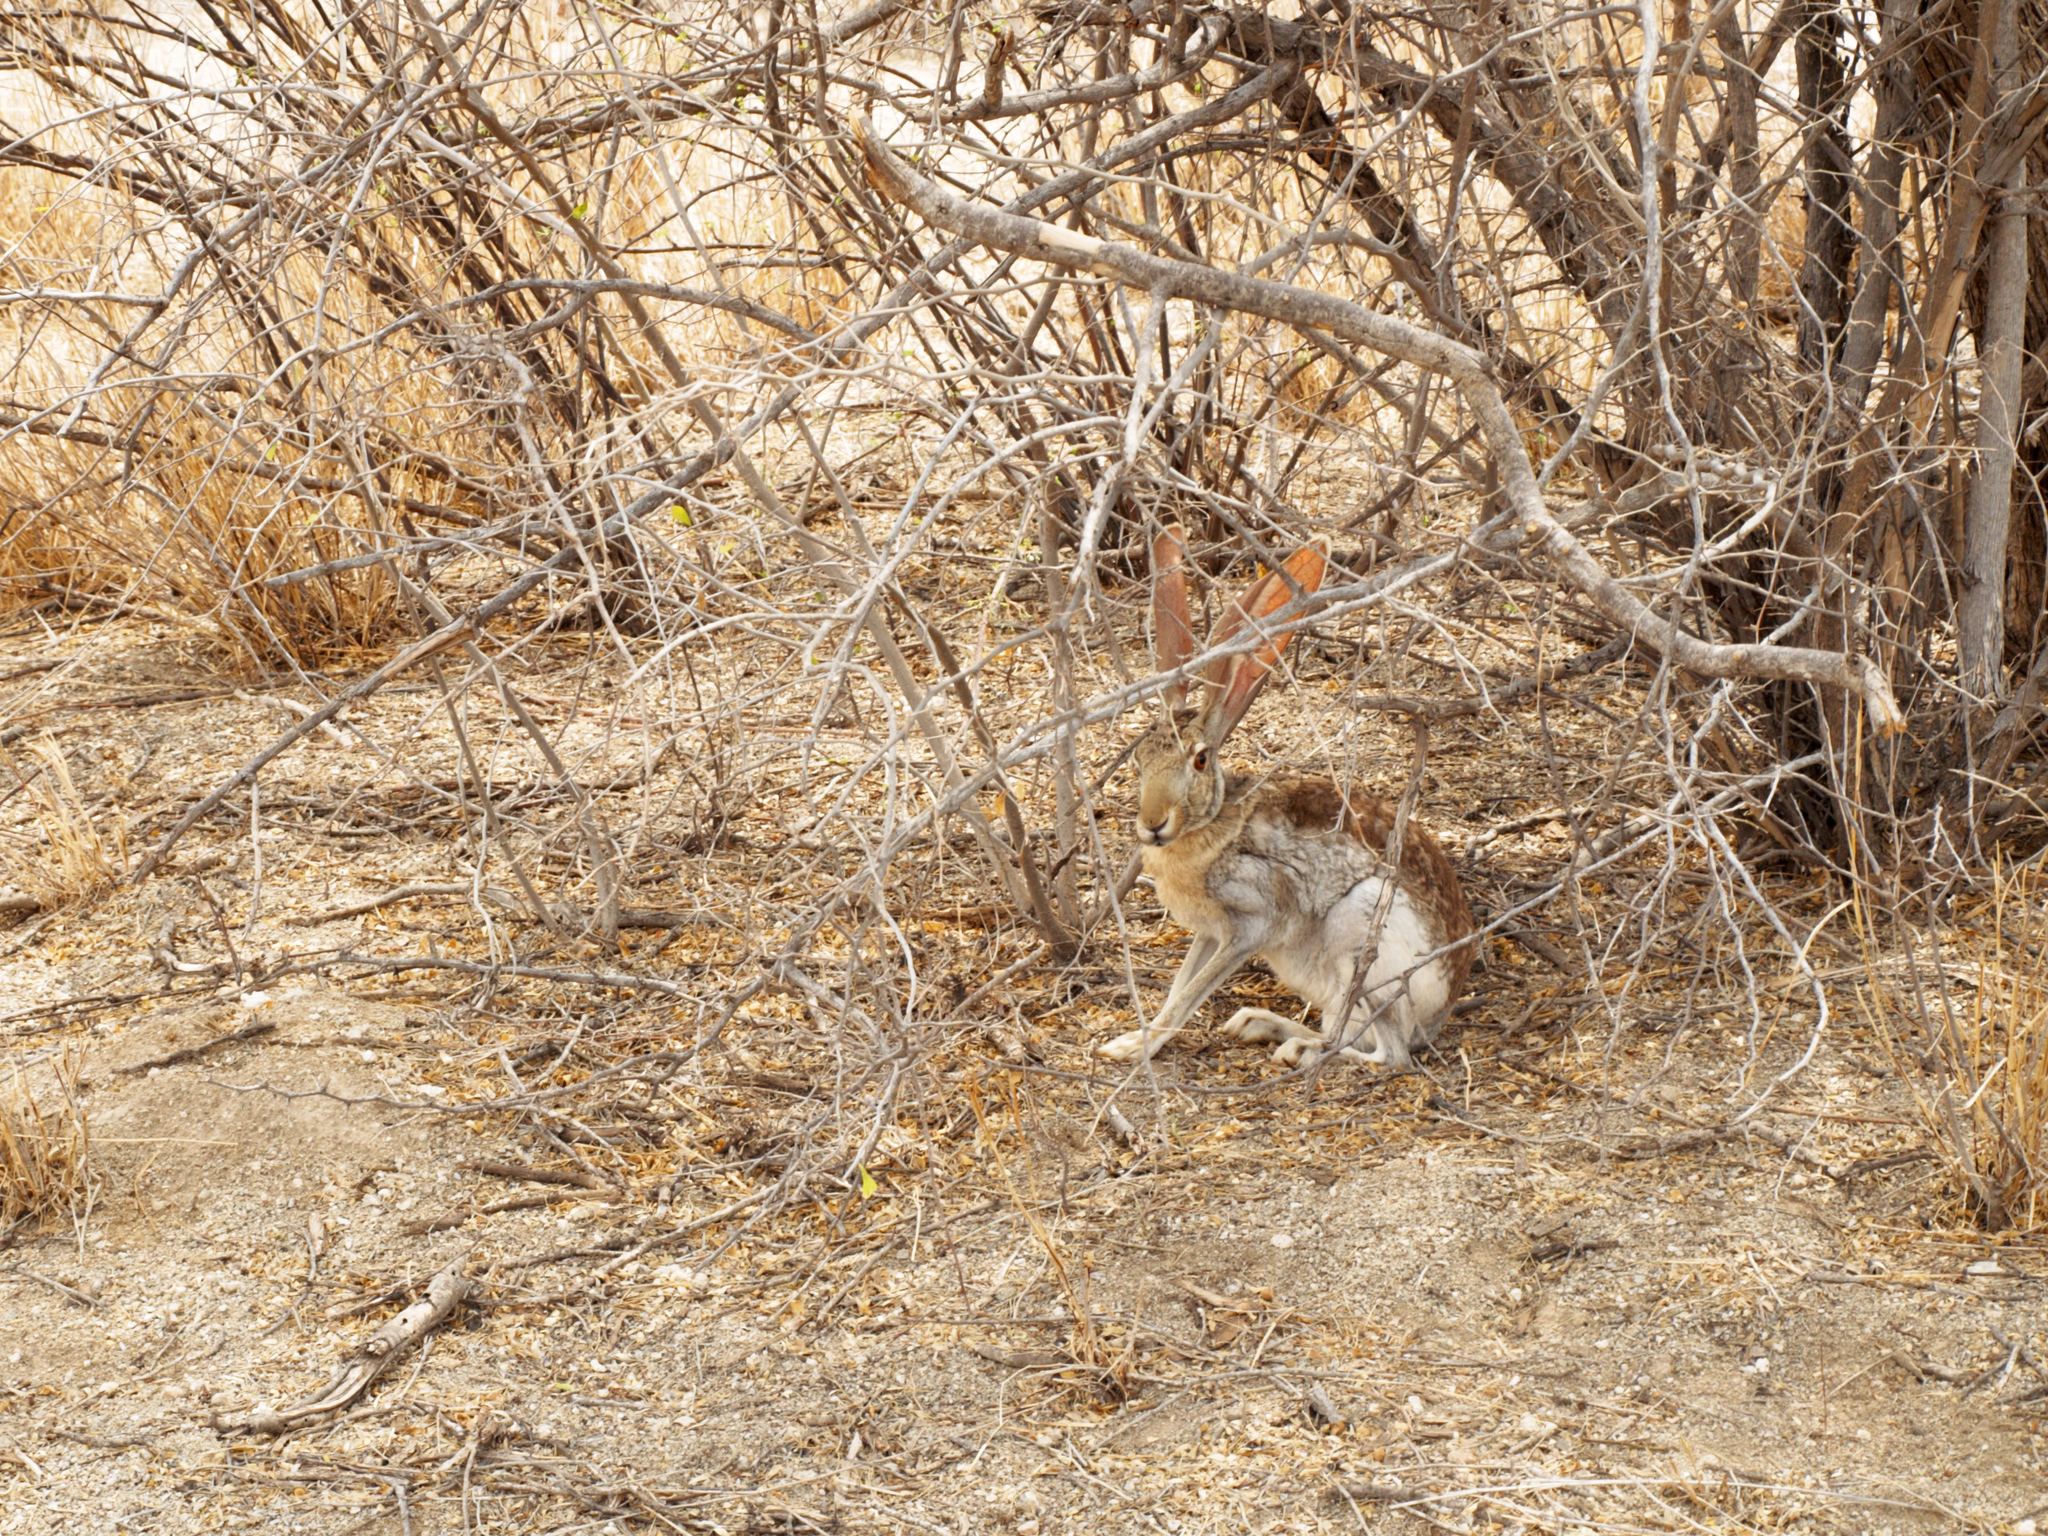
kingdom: Animalia
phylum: Chordata
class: Mammalia
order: Lagomorpha
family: Leporidae
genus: Lepus
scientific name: Lepus alleni
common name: Antelope jackrabbit
